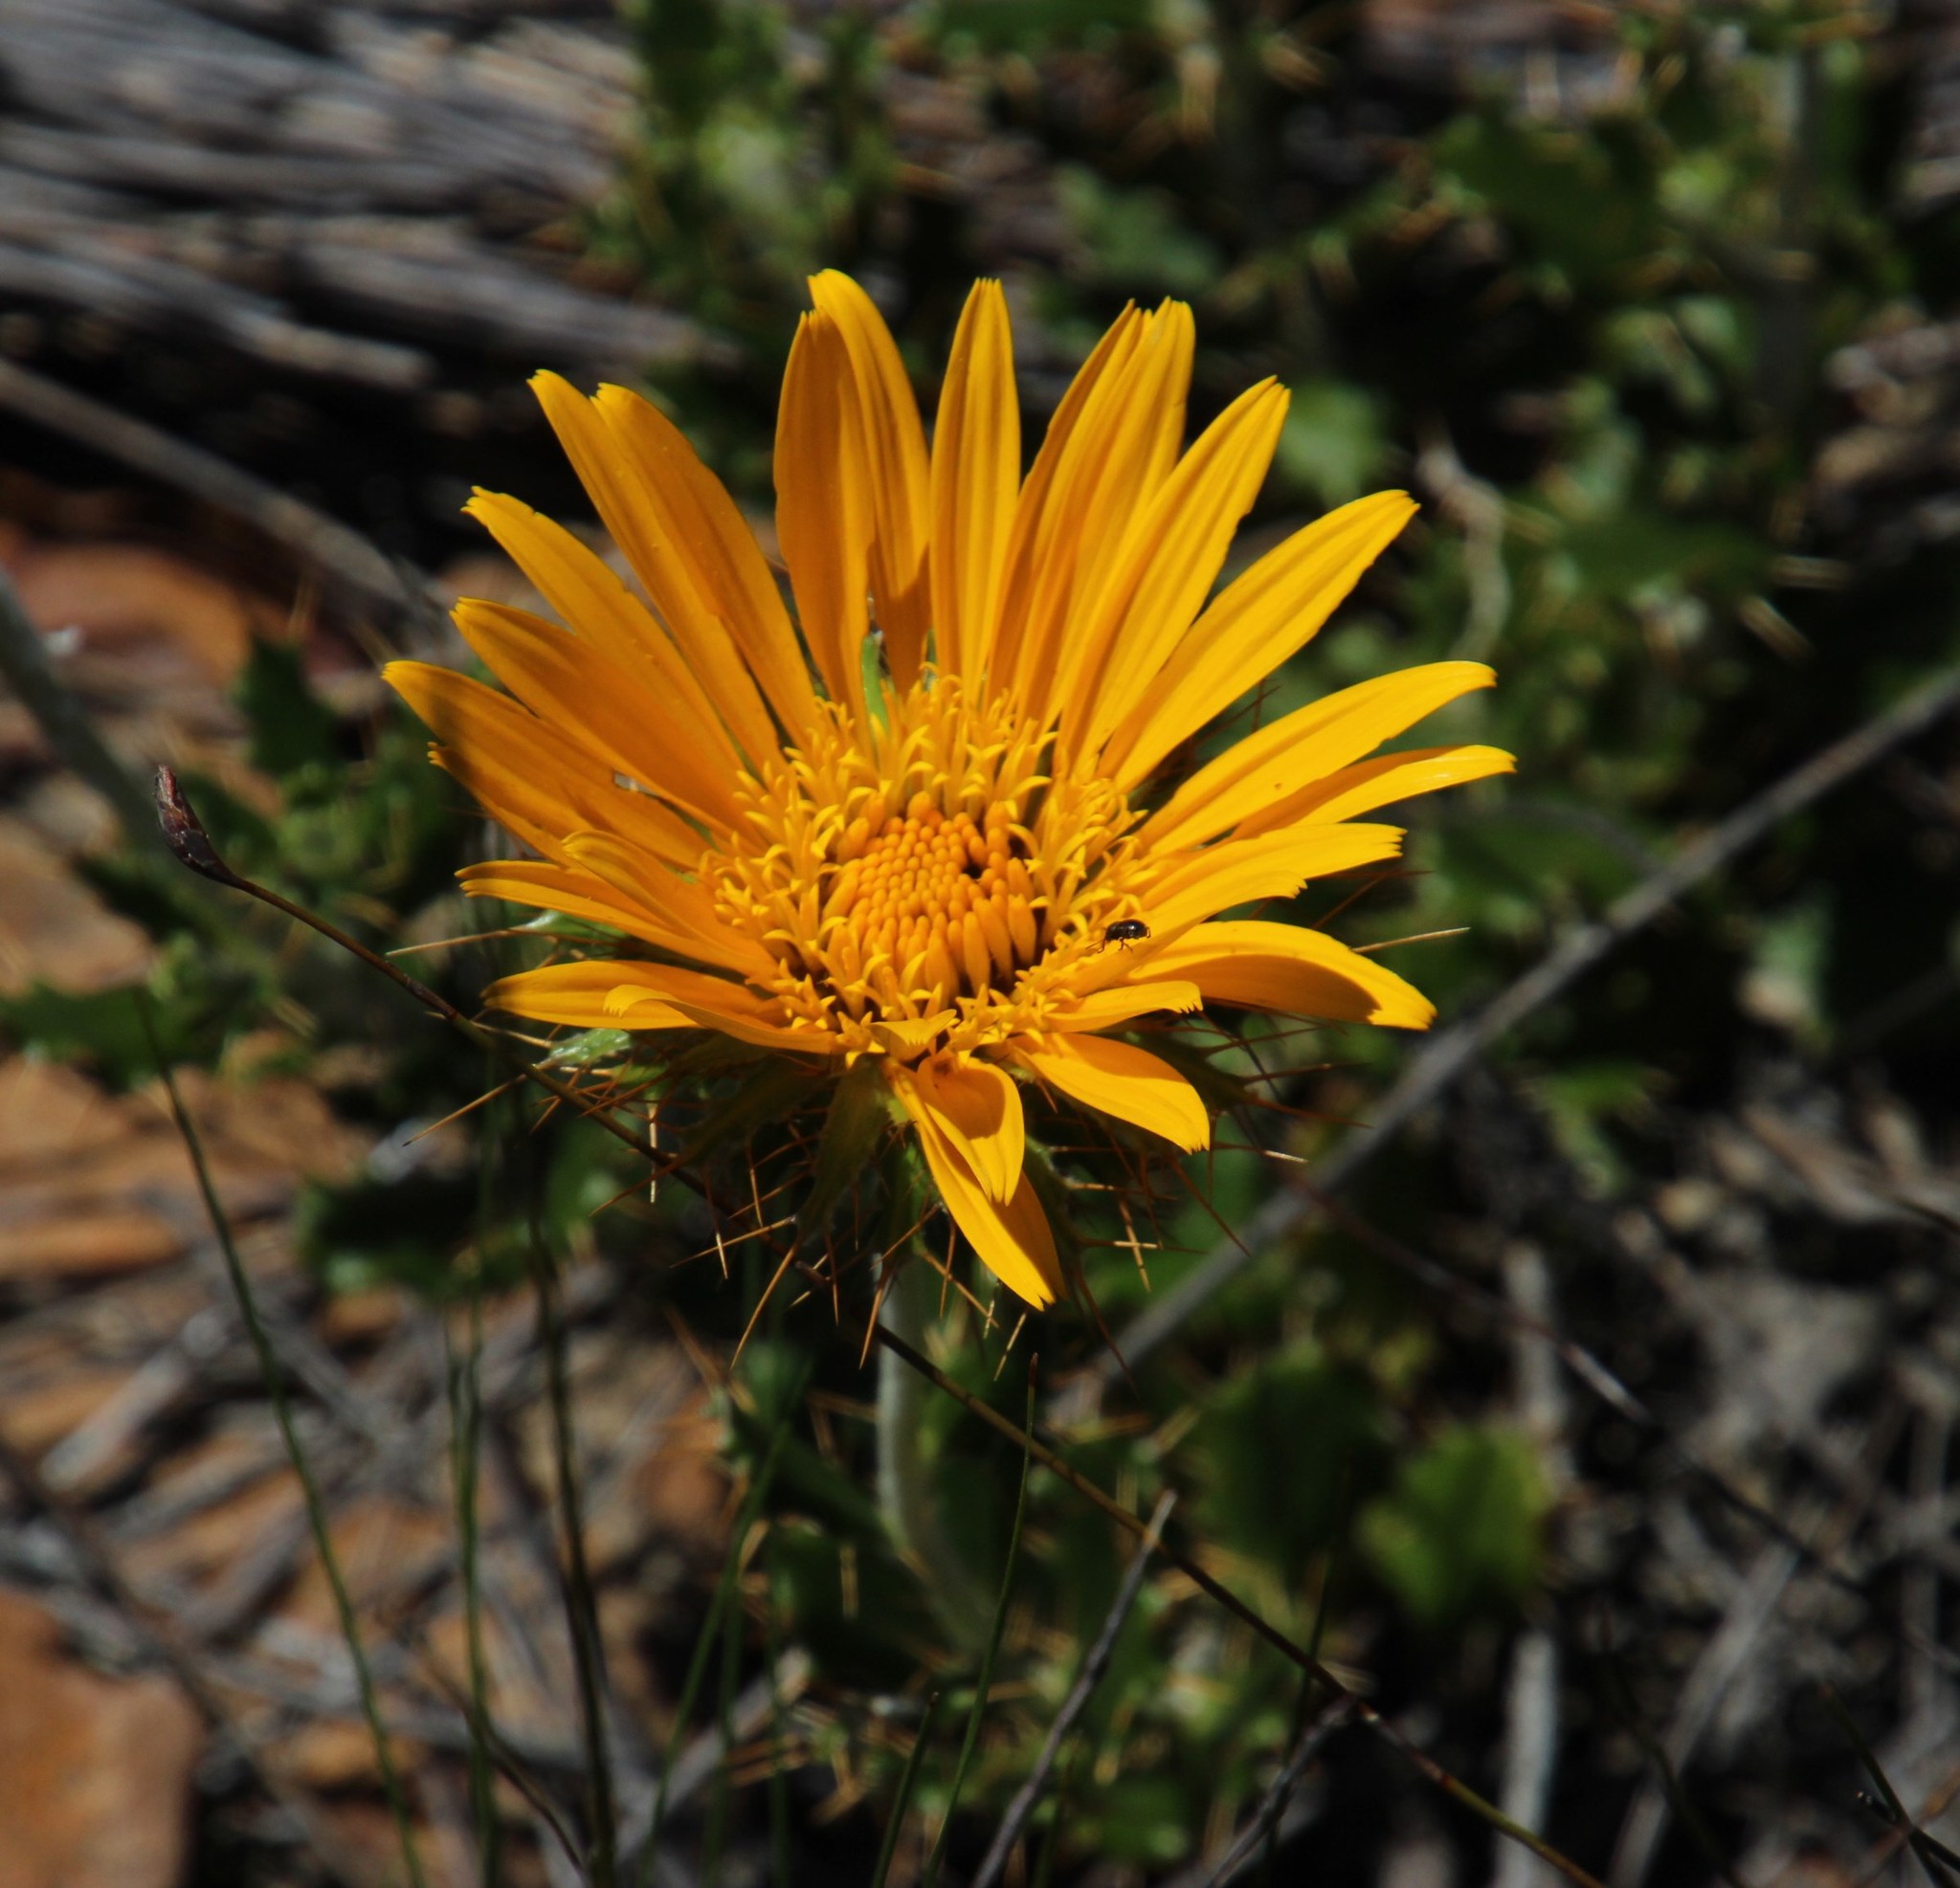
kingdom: Plantae
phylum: Tracheophyta
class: Magnoliopsida
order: Asterales
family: Asteraceae
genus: Berkheya
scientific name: Berkheya barbata
